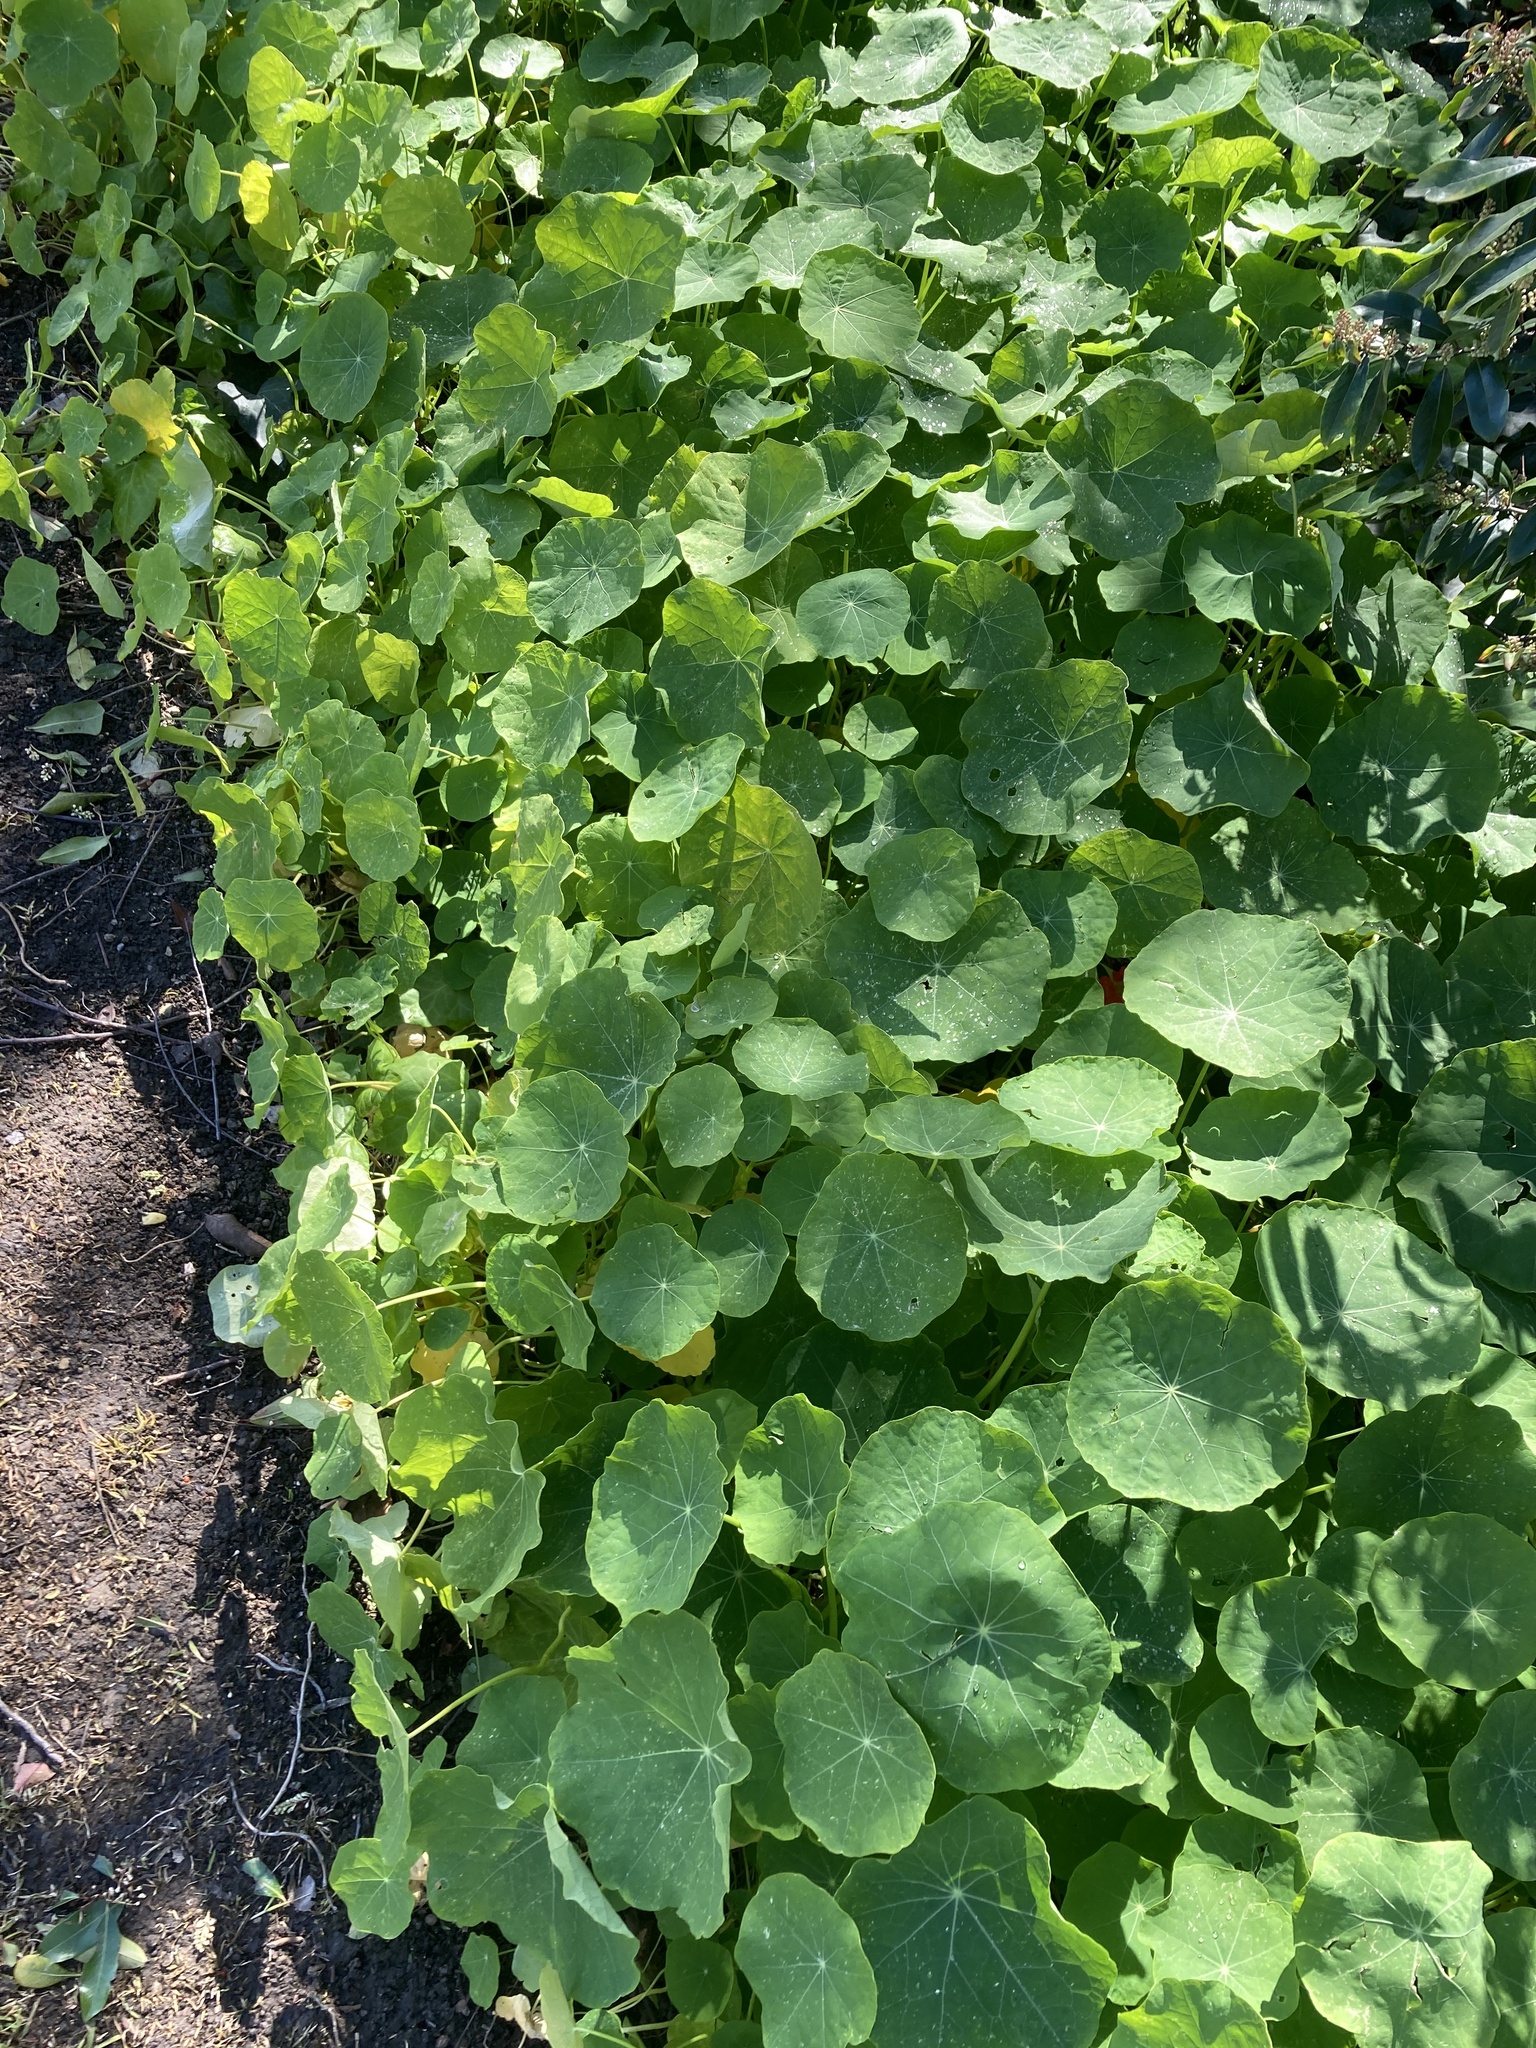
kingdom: Plantae
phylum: Tracheophyta
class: Magnoliopsida
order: Brassicales
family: Tropaeolaceae
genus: Tropaeolum
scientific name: Tropaeolum majus
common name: Nasturtium
